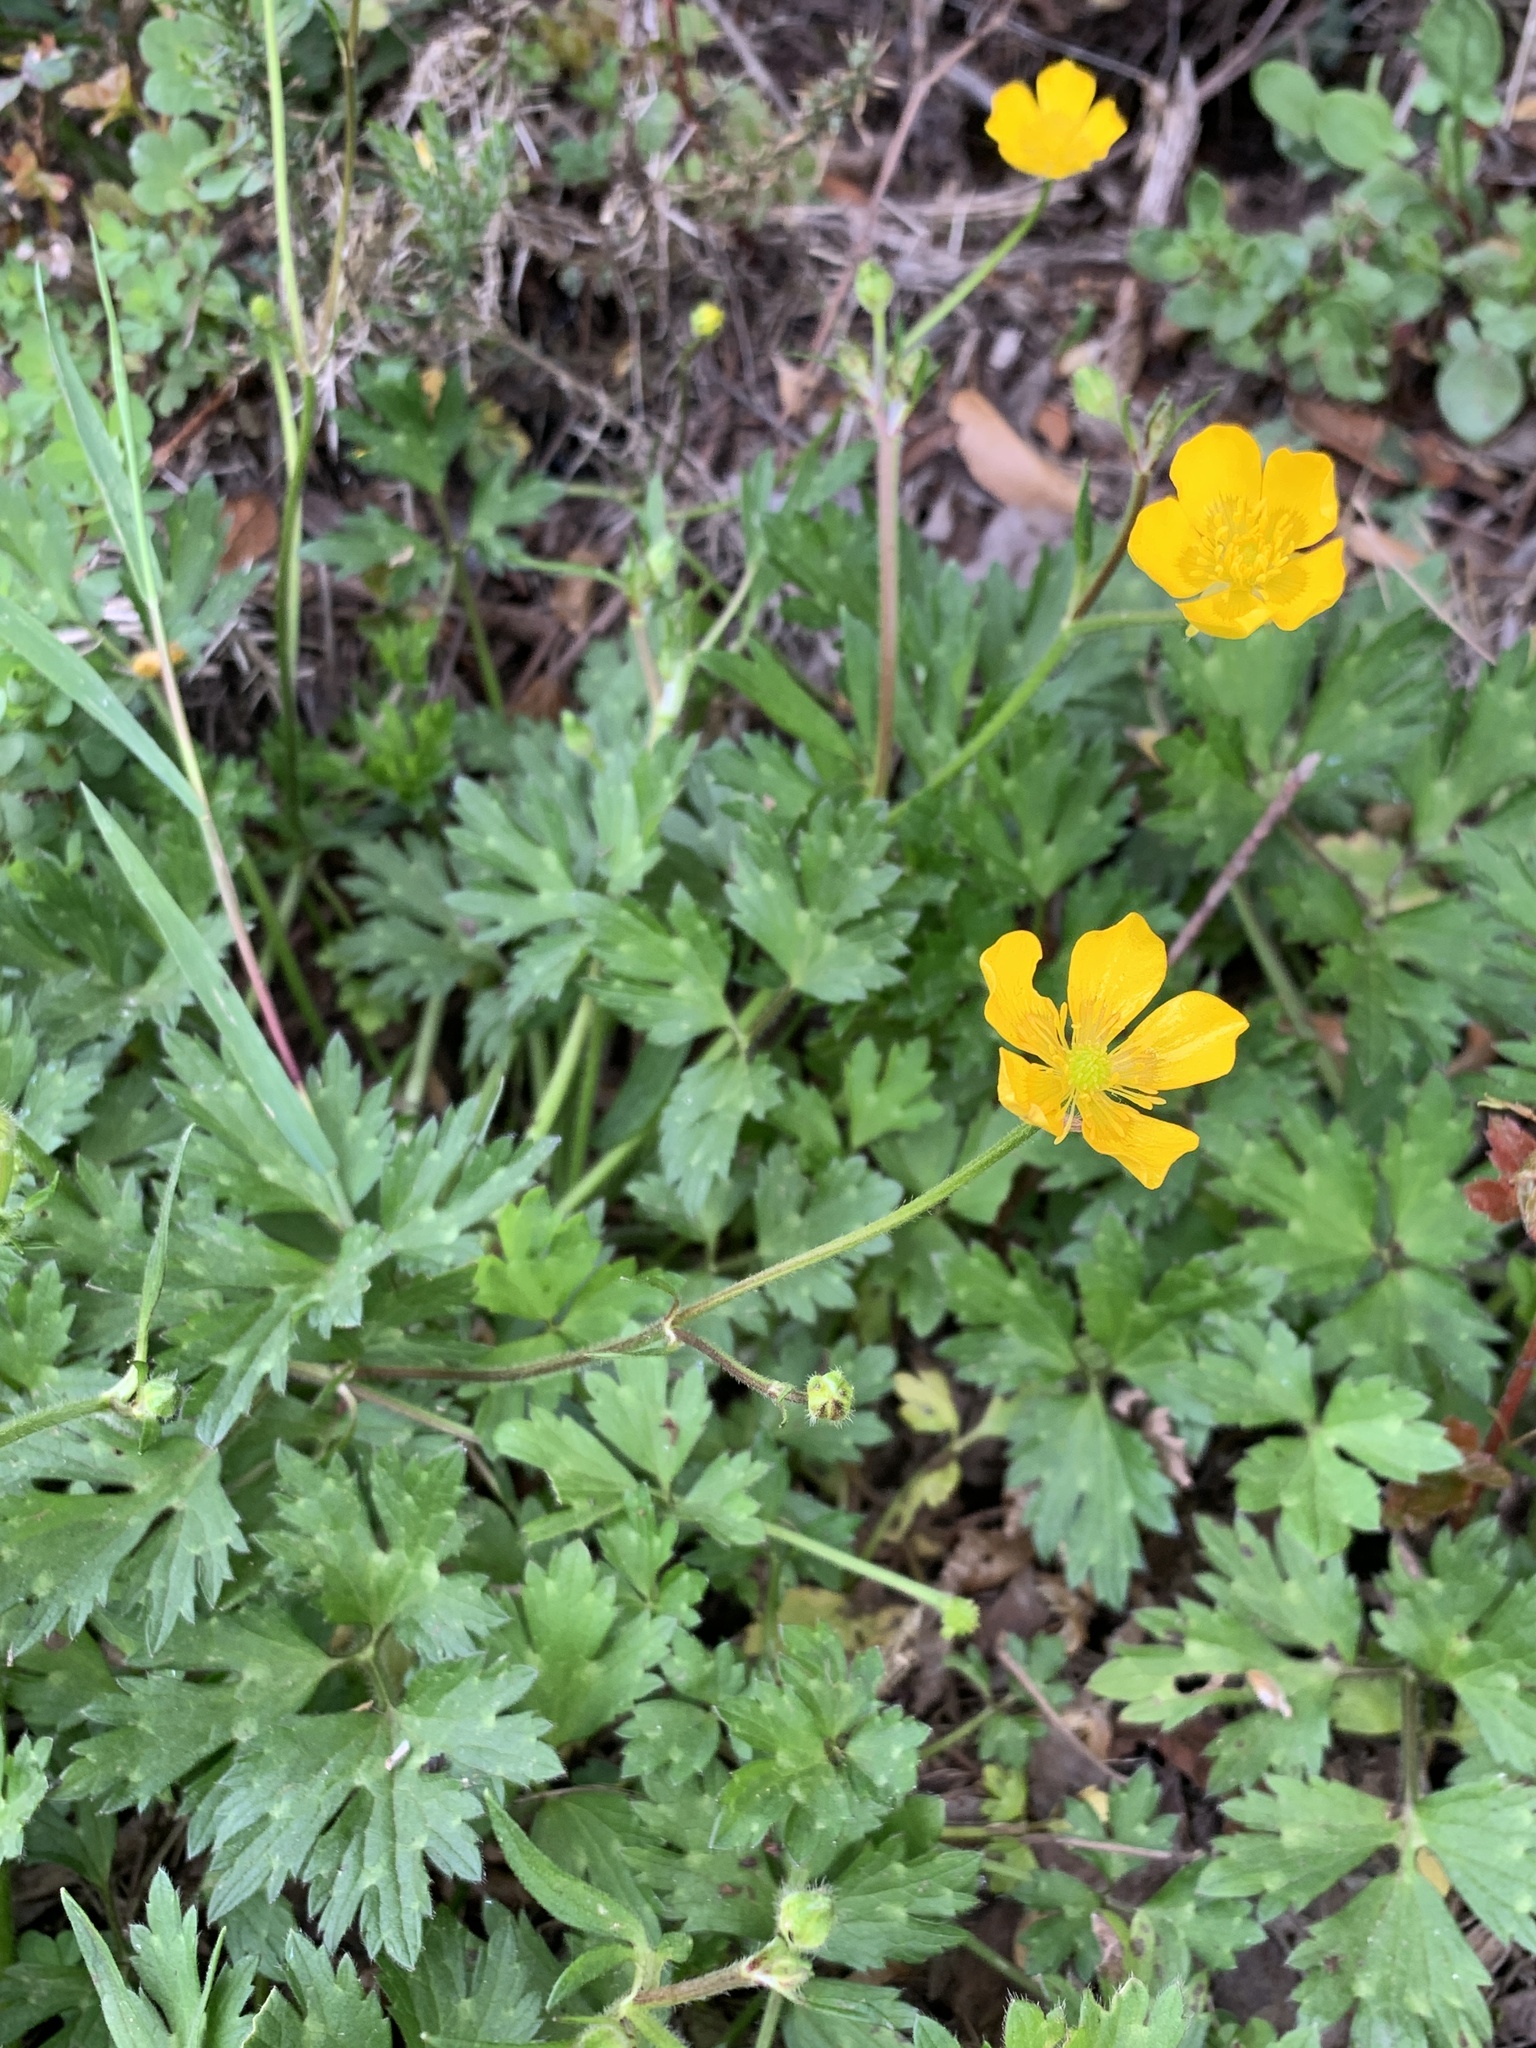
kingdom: Plantae
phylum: Tracheophyta
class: Magnoliopsida
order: Ranunculales
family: Ranunculaceae
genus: Ranunculus
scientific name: Ranunculus repens
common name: Creeping buttercup
